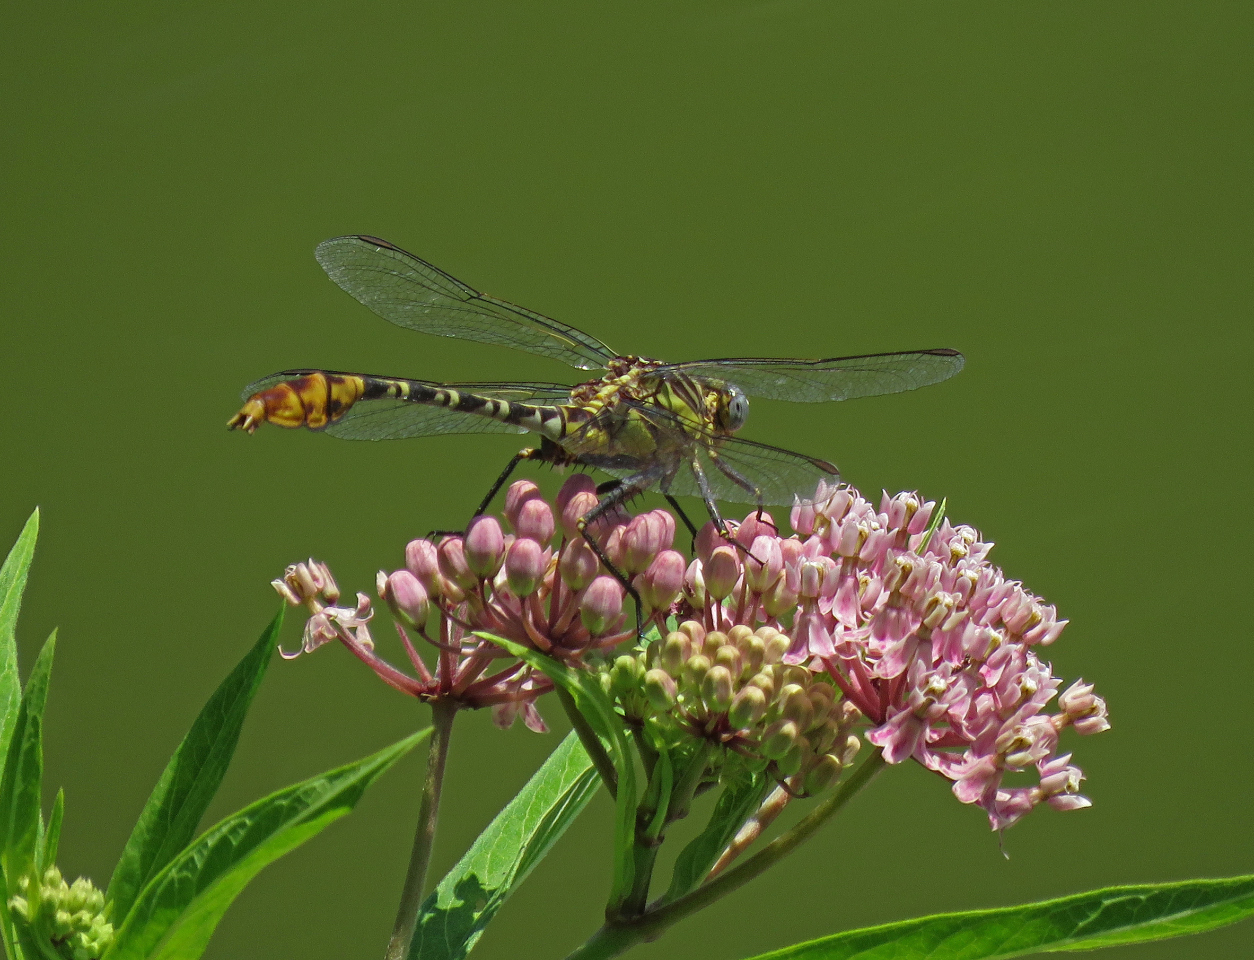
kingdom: Animalia
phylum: Arthropoda
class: Insecta
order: Odonata
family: Gomphidae
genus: Dromogomphus
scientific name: Dromogomphus spoliatus
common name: Flag-tailed spinyleg
